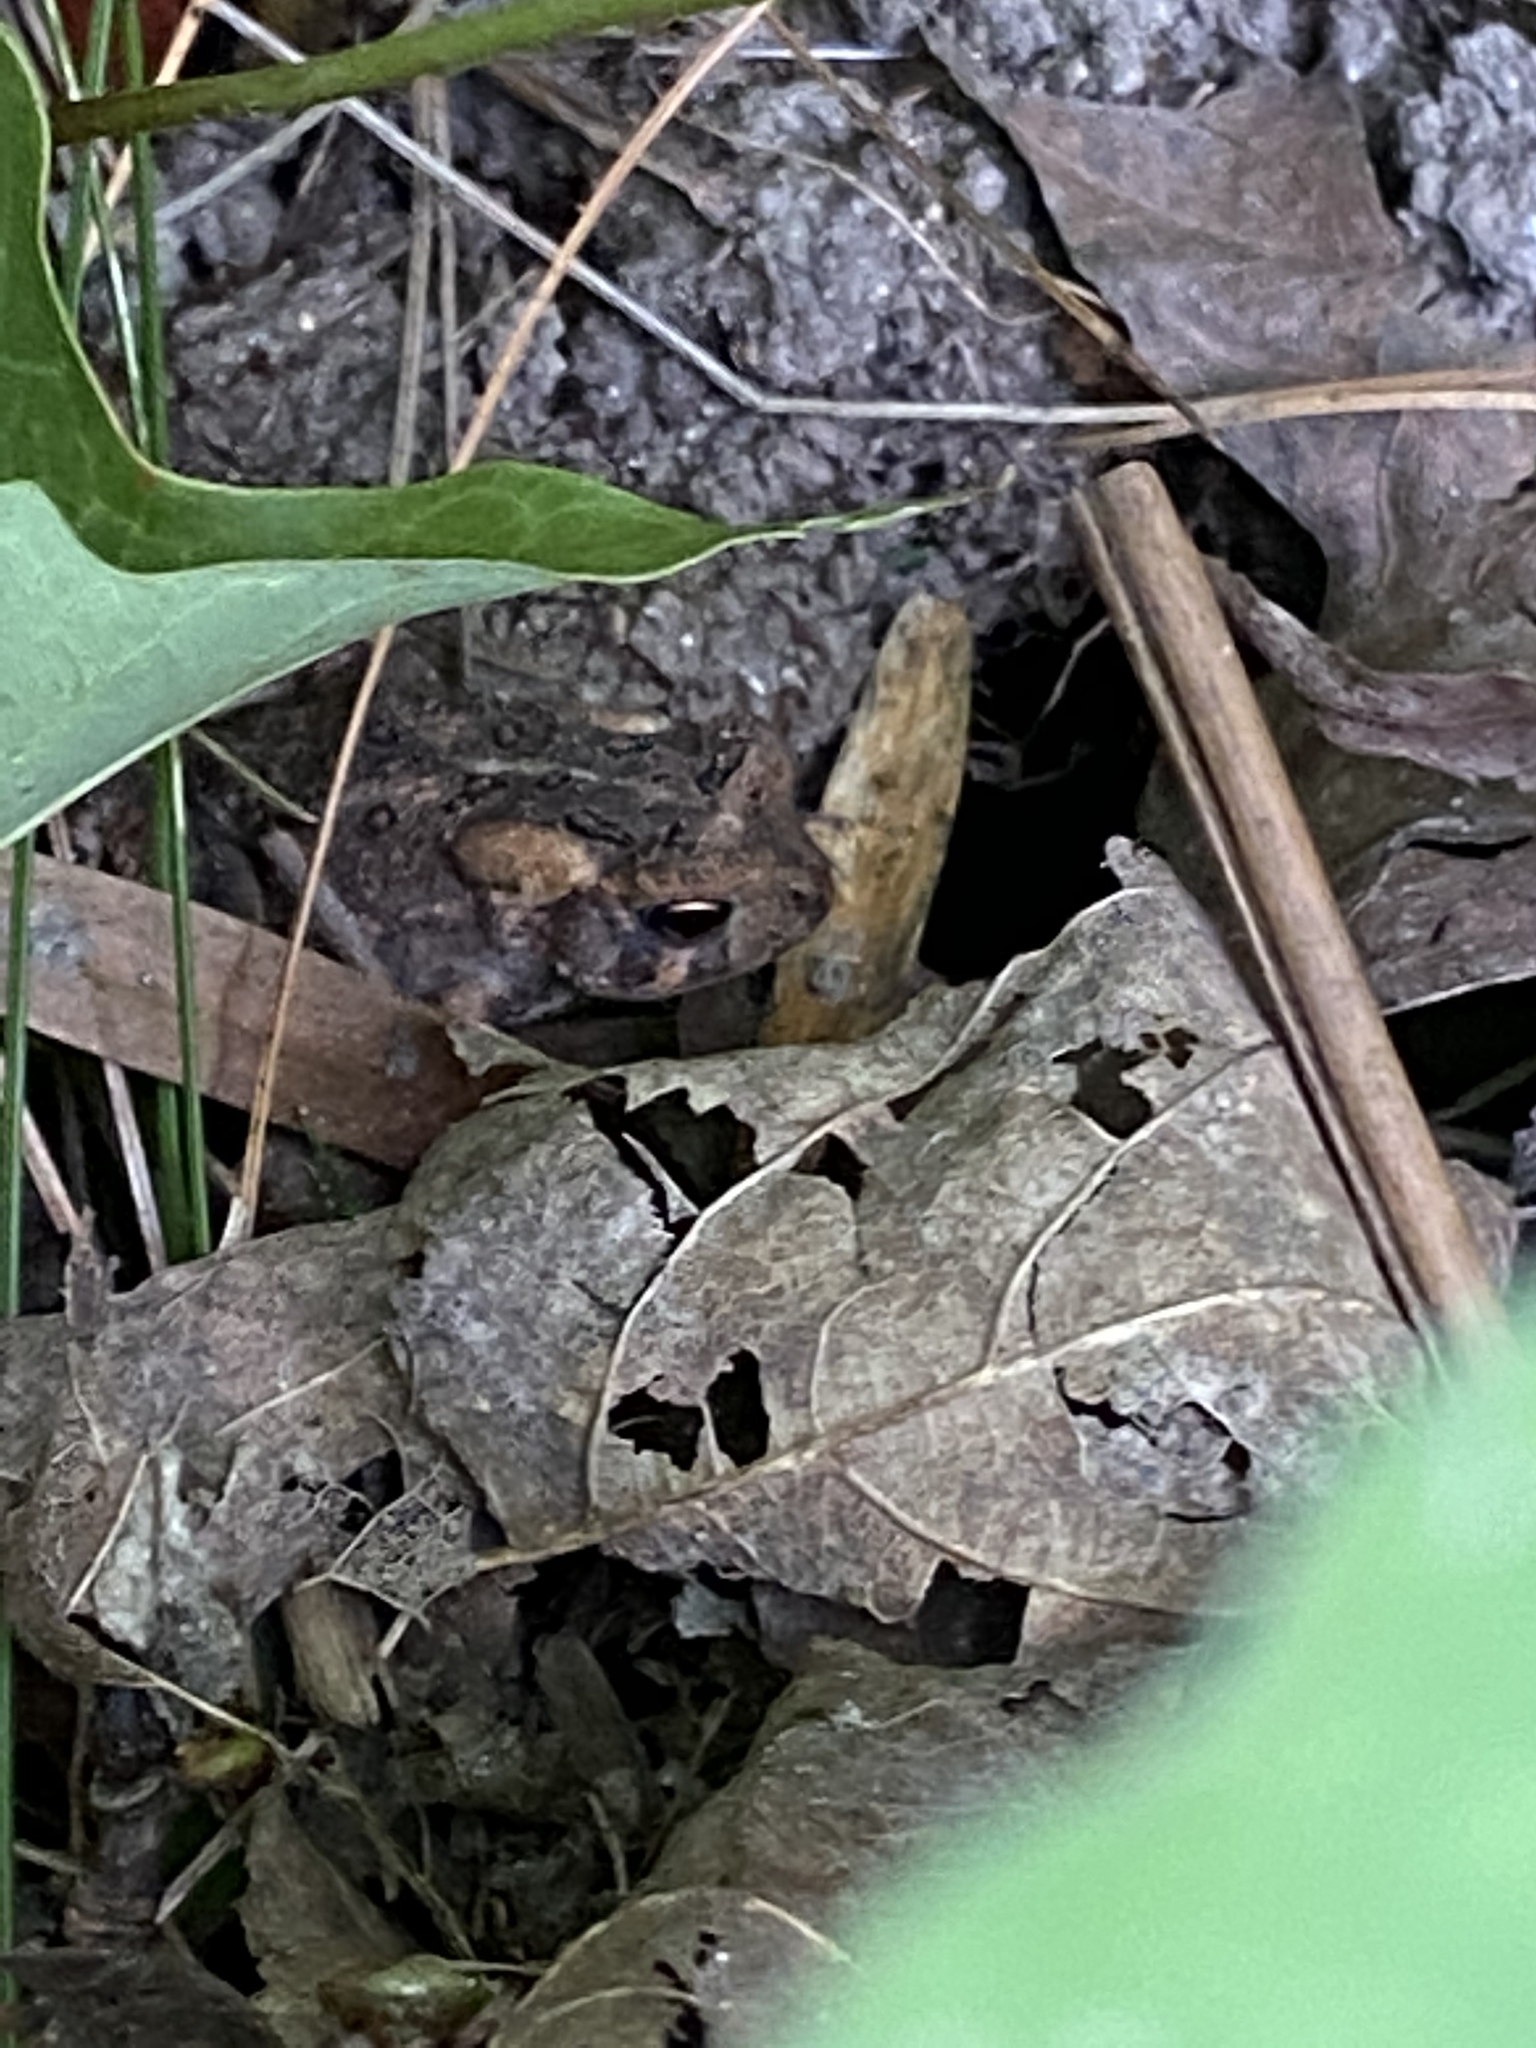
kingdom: Animalia
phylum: Chordata
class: Amphibia
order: Anura
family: Bufonidae
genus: Anaxyrus
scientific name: Anaxyrus americanus
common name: American toad
